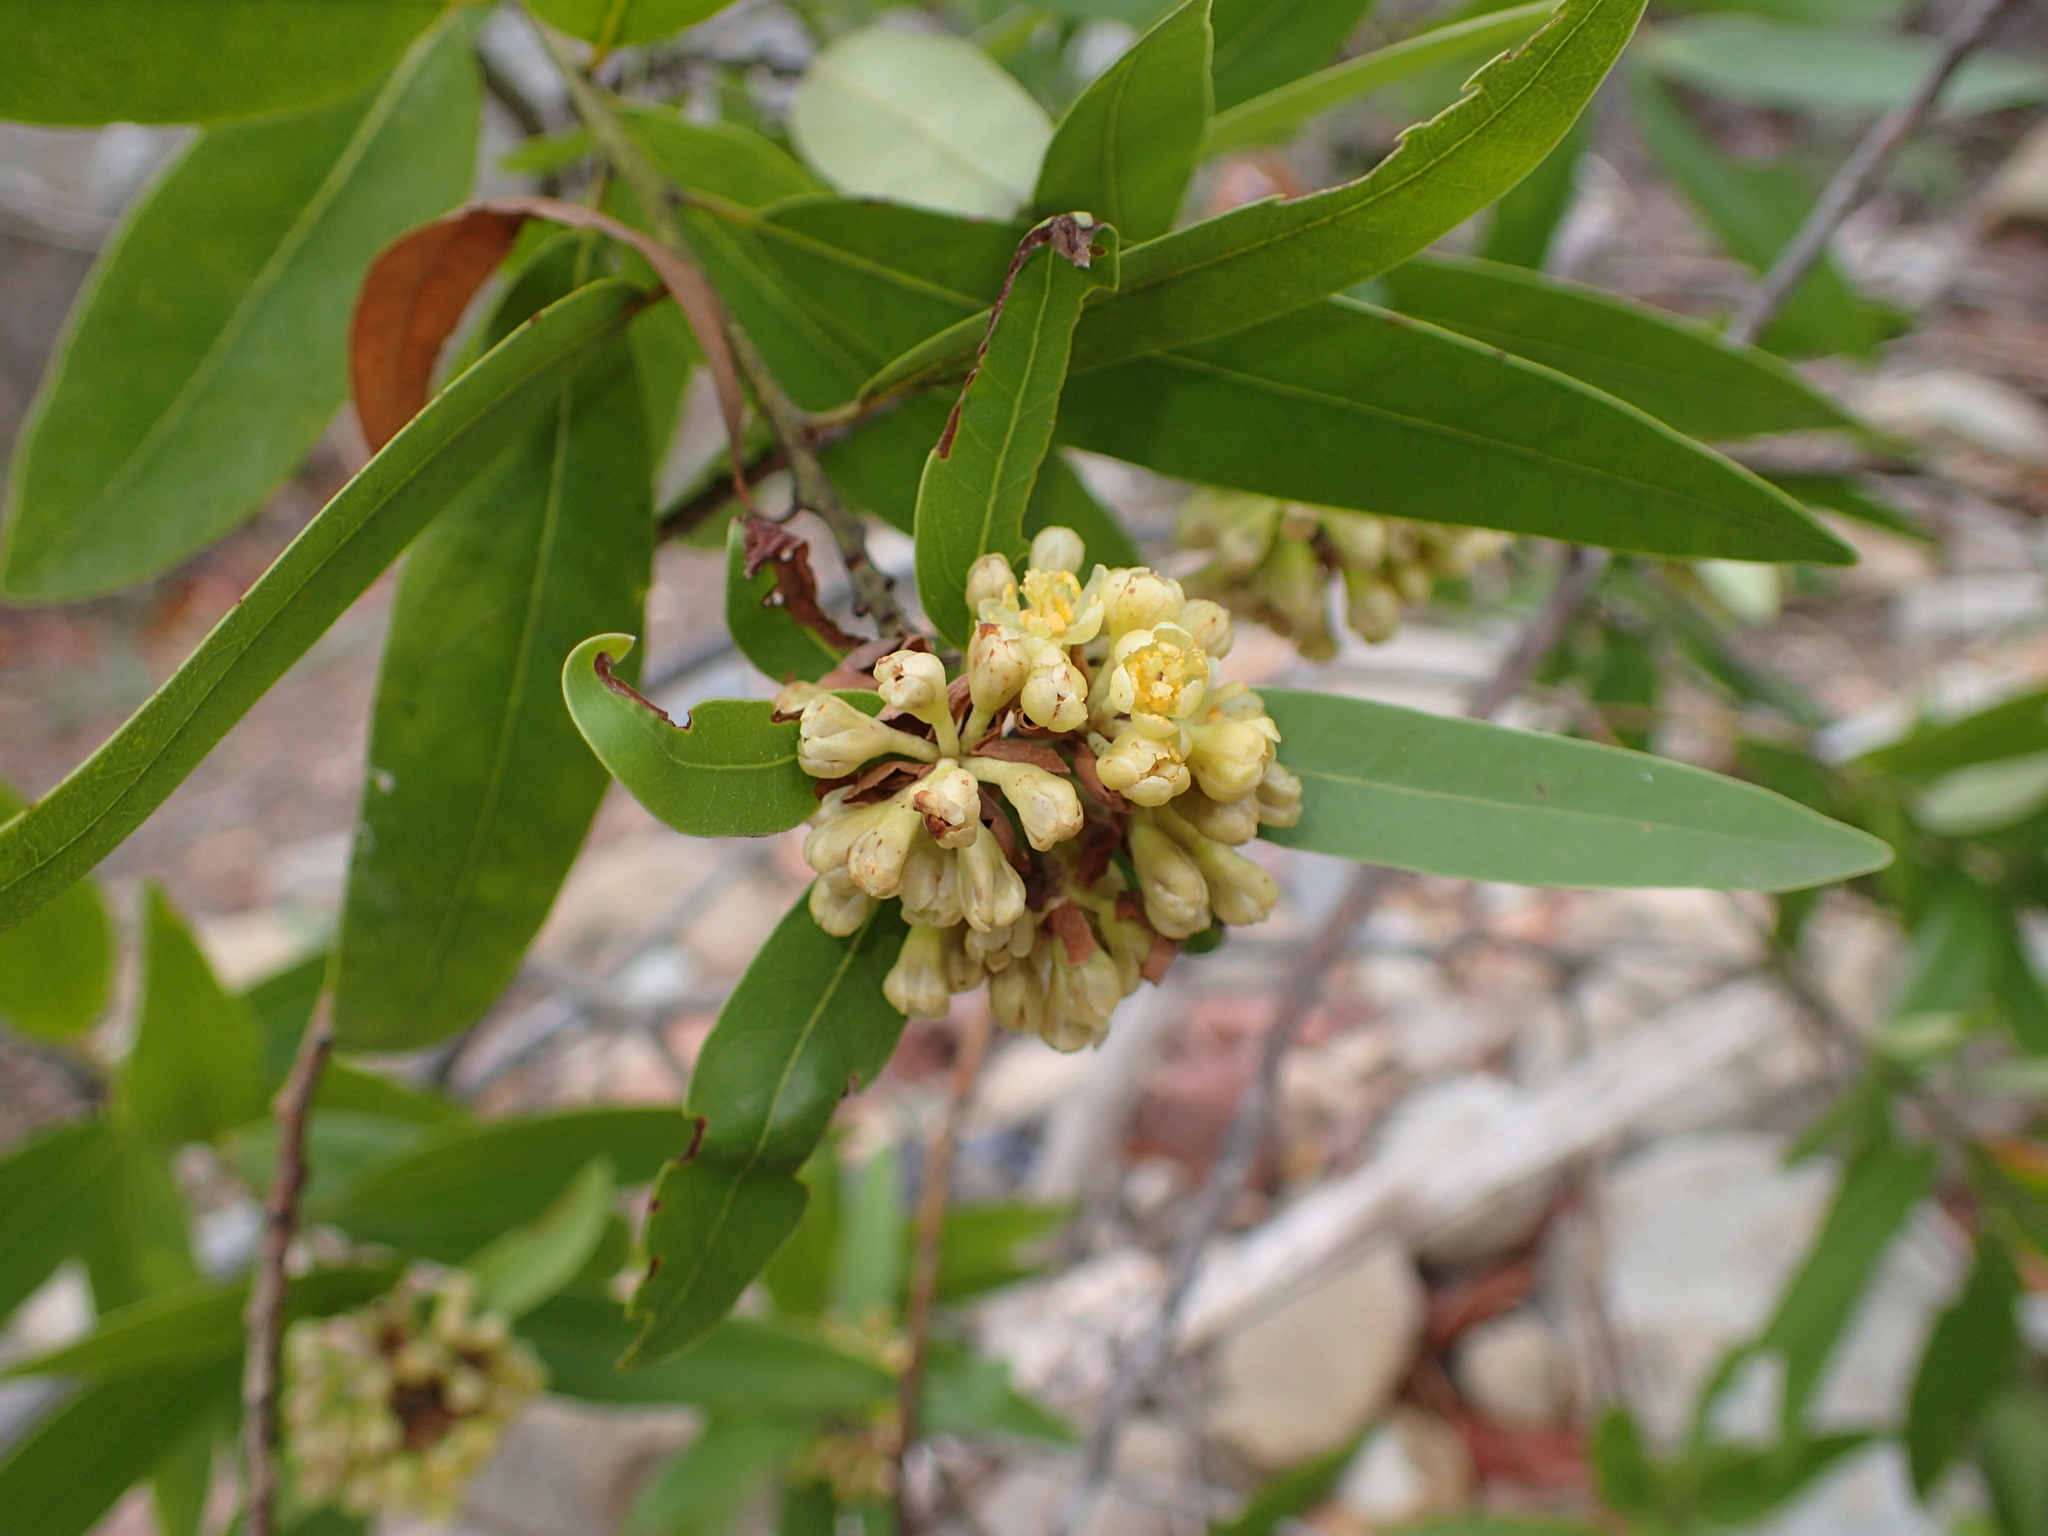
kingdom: Plantae
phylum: Tracheophyta
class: Magnoliopsida
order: Laurales
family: Lauraceae
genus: Umbellularia
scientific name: Umbellularia californica
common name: California bay
